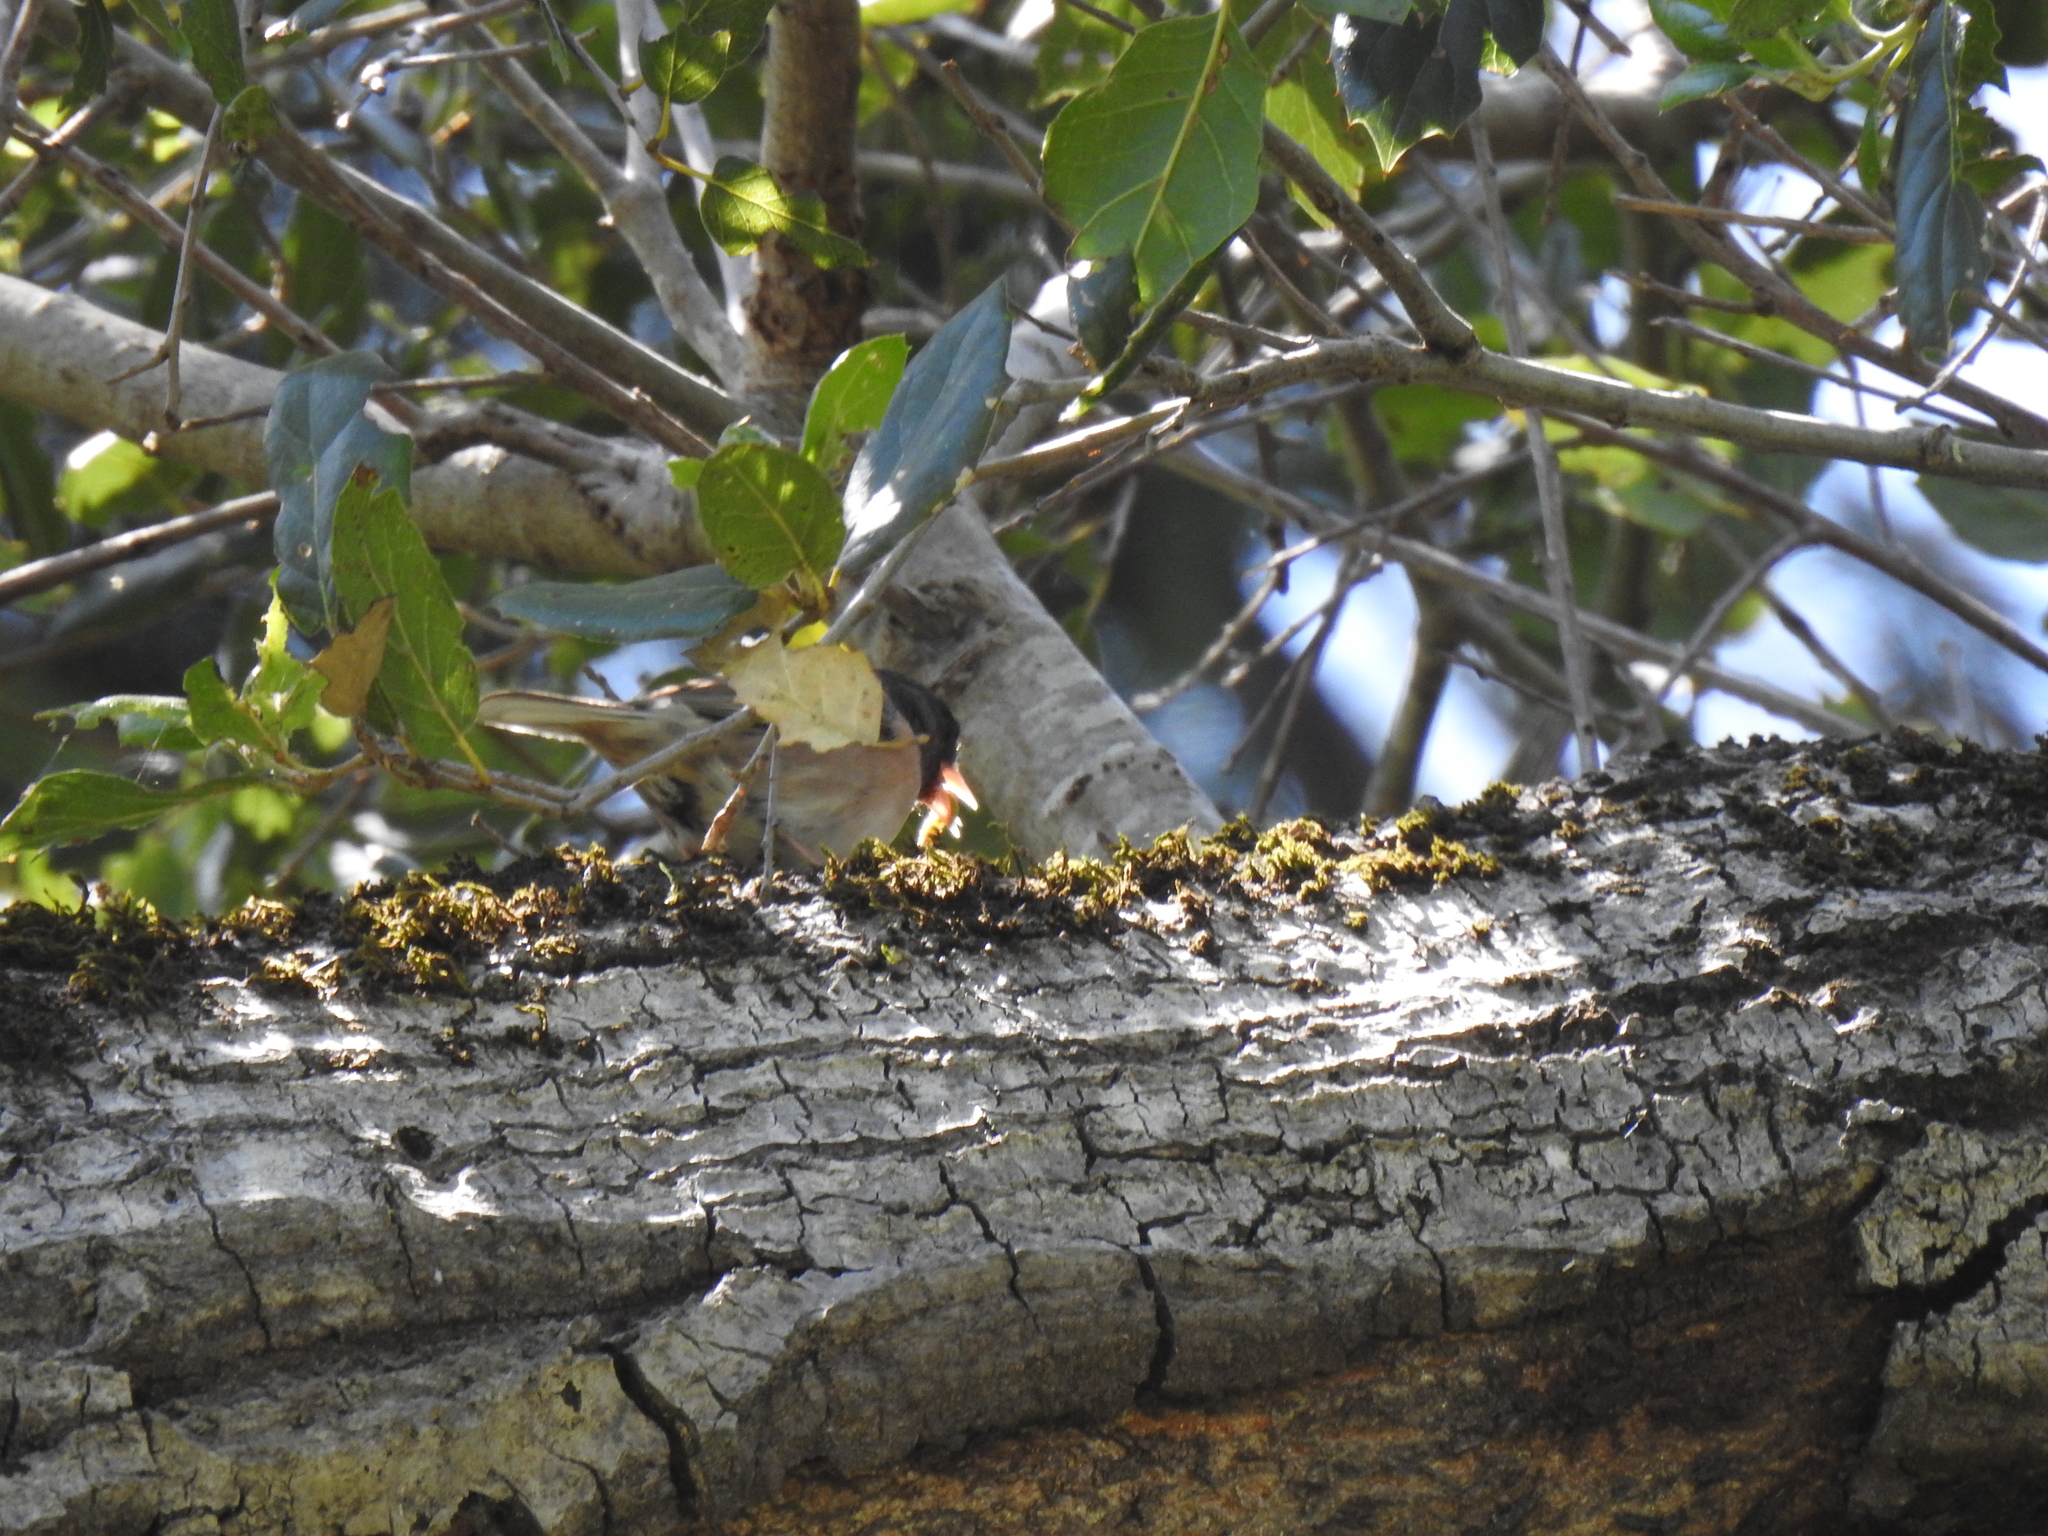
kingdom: Animalia
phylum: Chordata
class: Aves
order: Passeriformes
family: Passerellidae
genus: Junco
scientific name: Junco hyemalis
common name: Dark-eyed junco
